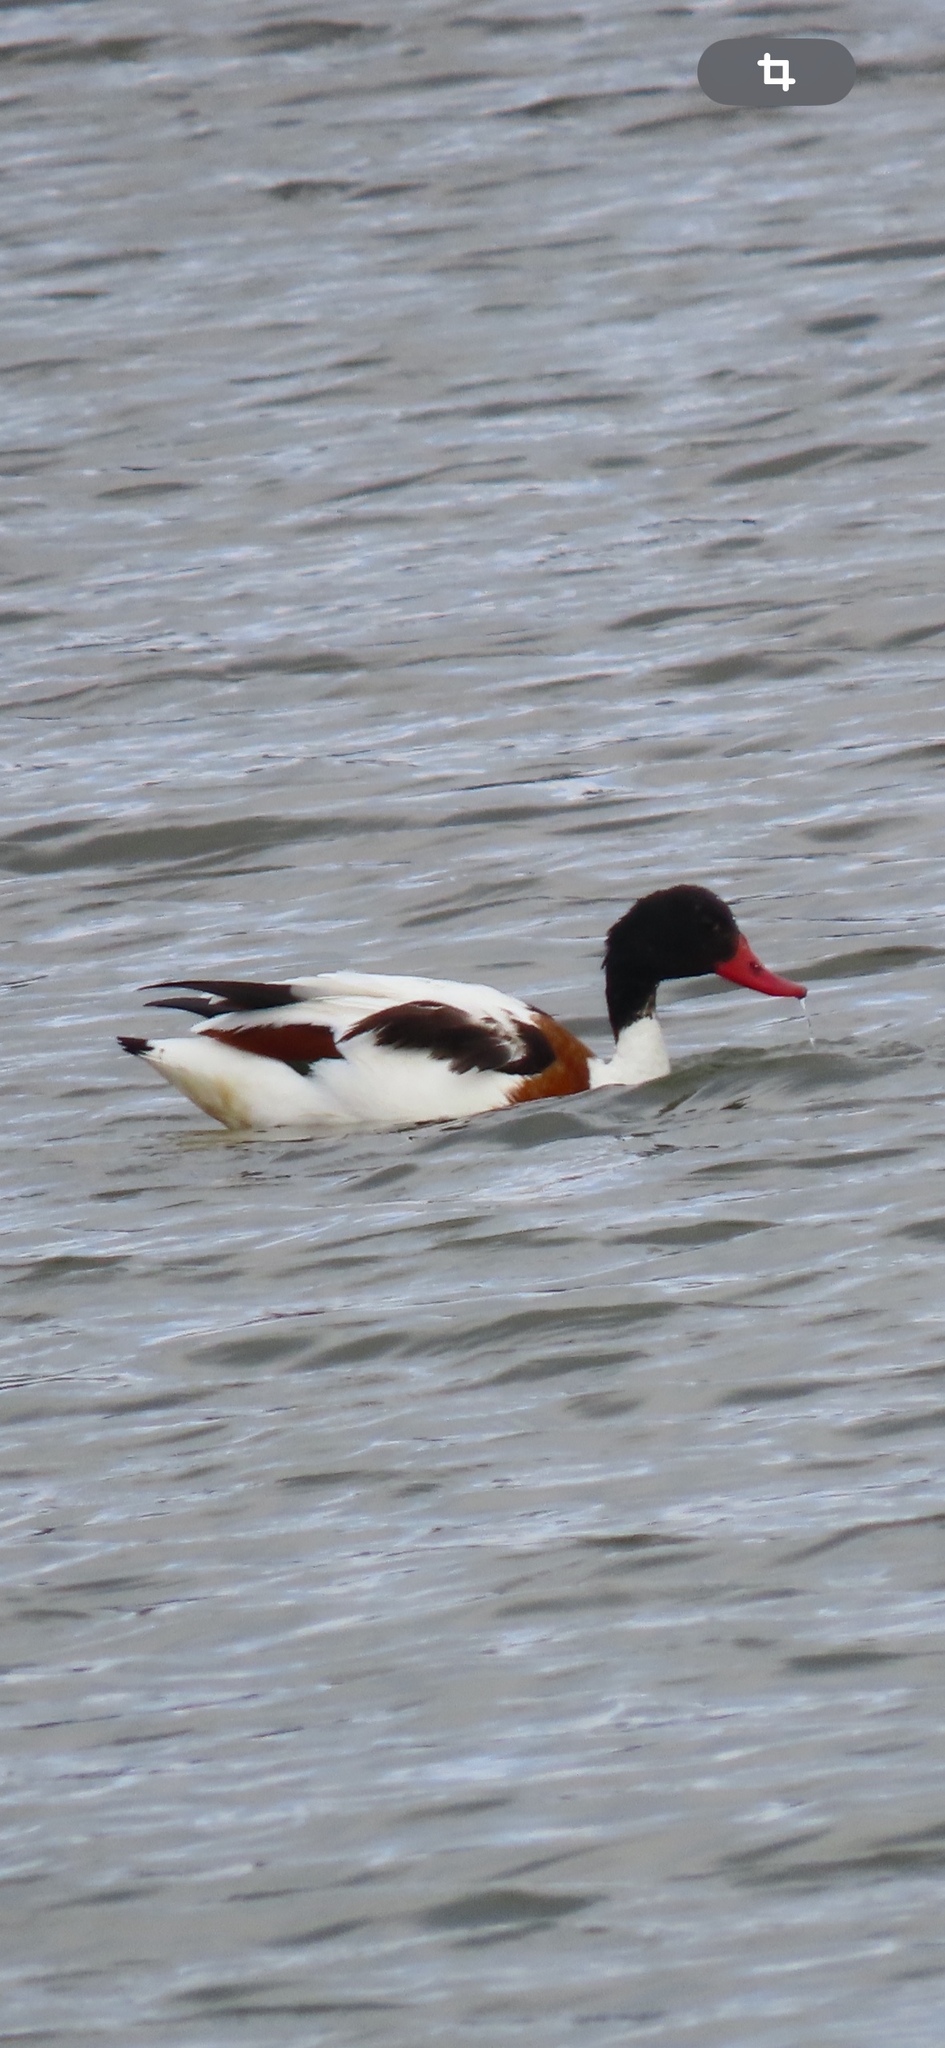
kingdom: Animalia
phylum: Chordata
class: Aves
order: Anseriformes
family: Anatidae
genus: Tadorna
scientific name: Tadorna tadorna
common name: Common shelduck
